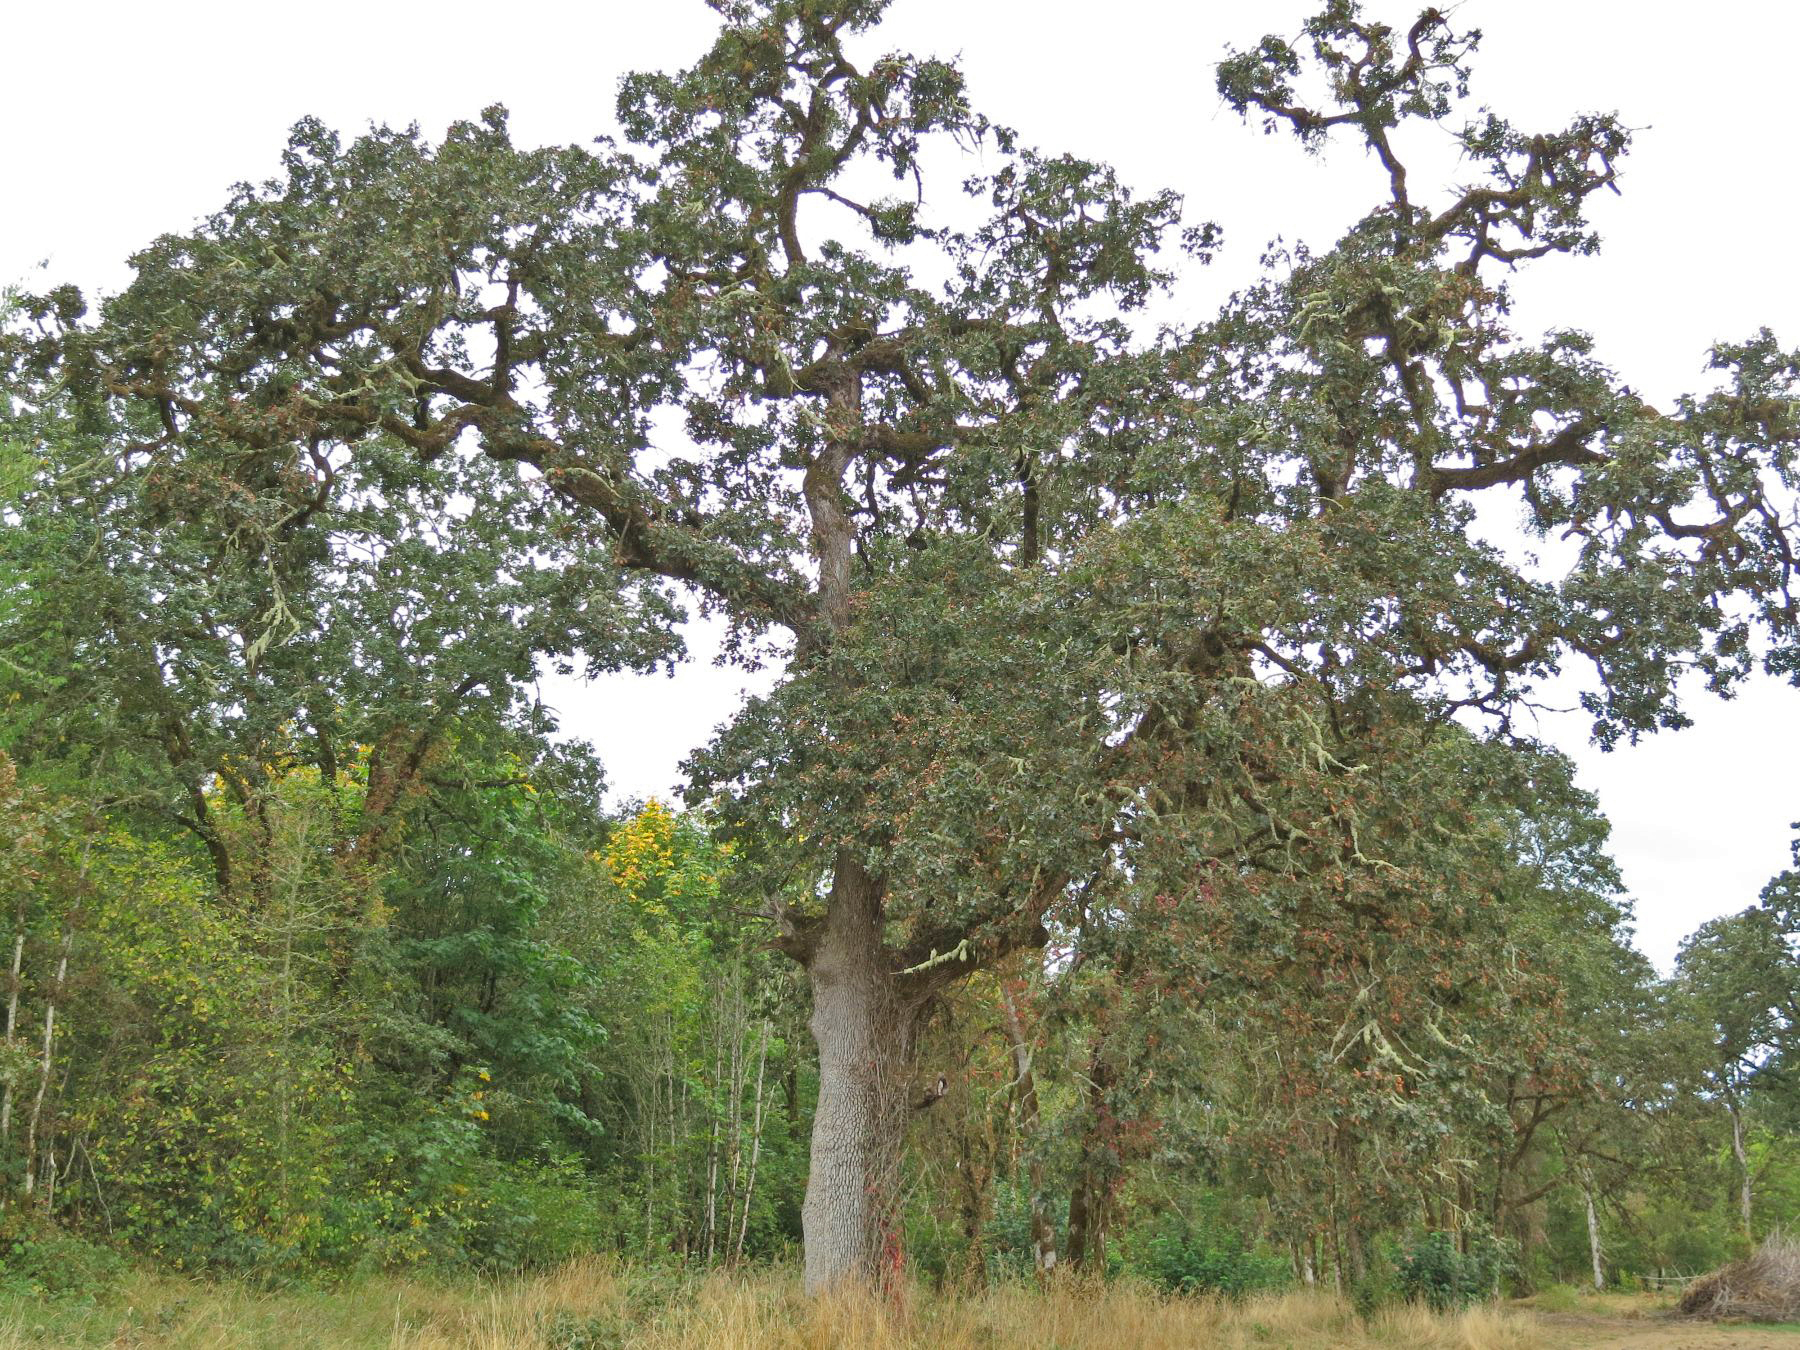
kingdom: Plantae
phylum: Tracheophyta
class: Magnoliopsida
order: Fagales
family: Fagaceae
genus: Quercus
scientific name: Quercus garryana
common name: Garry oak
